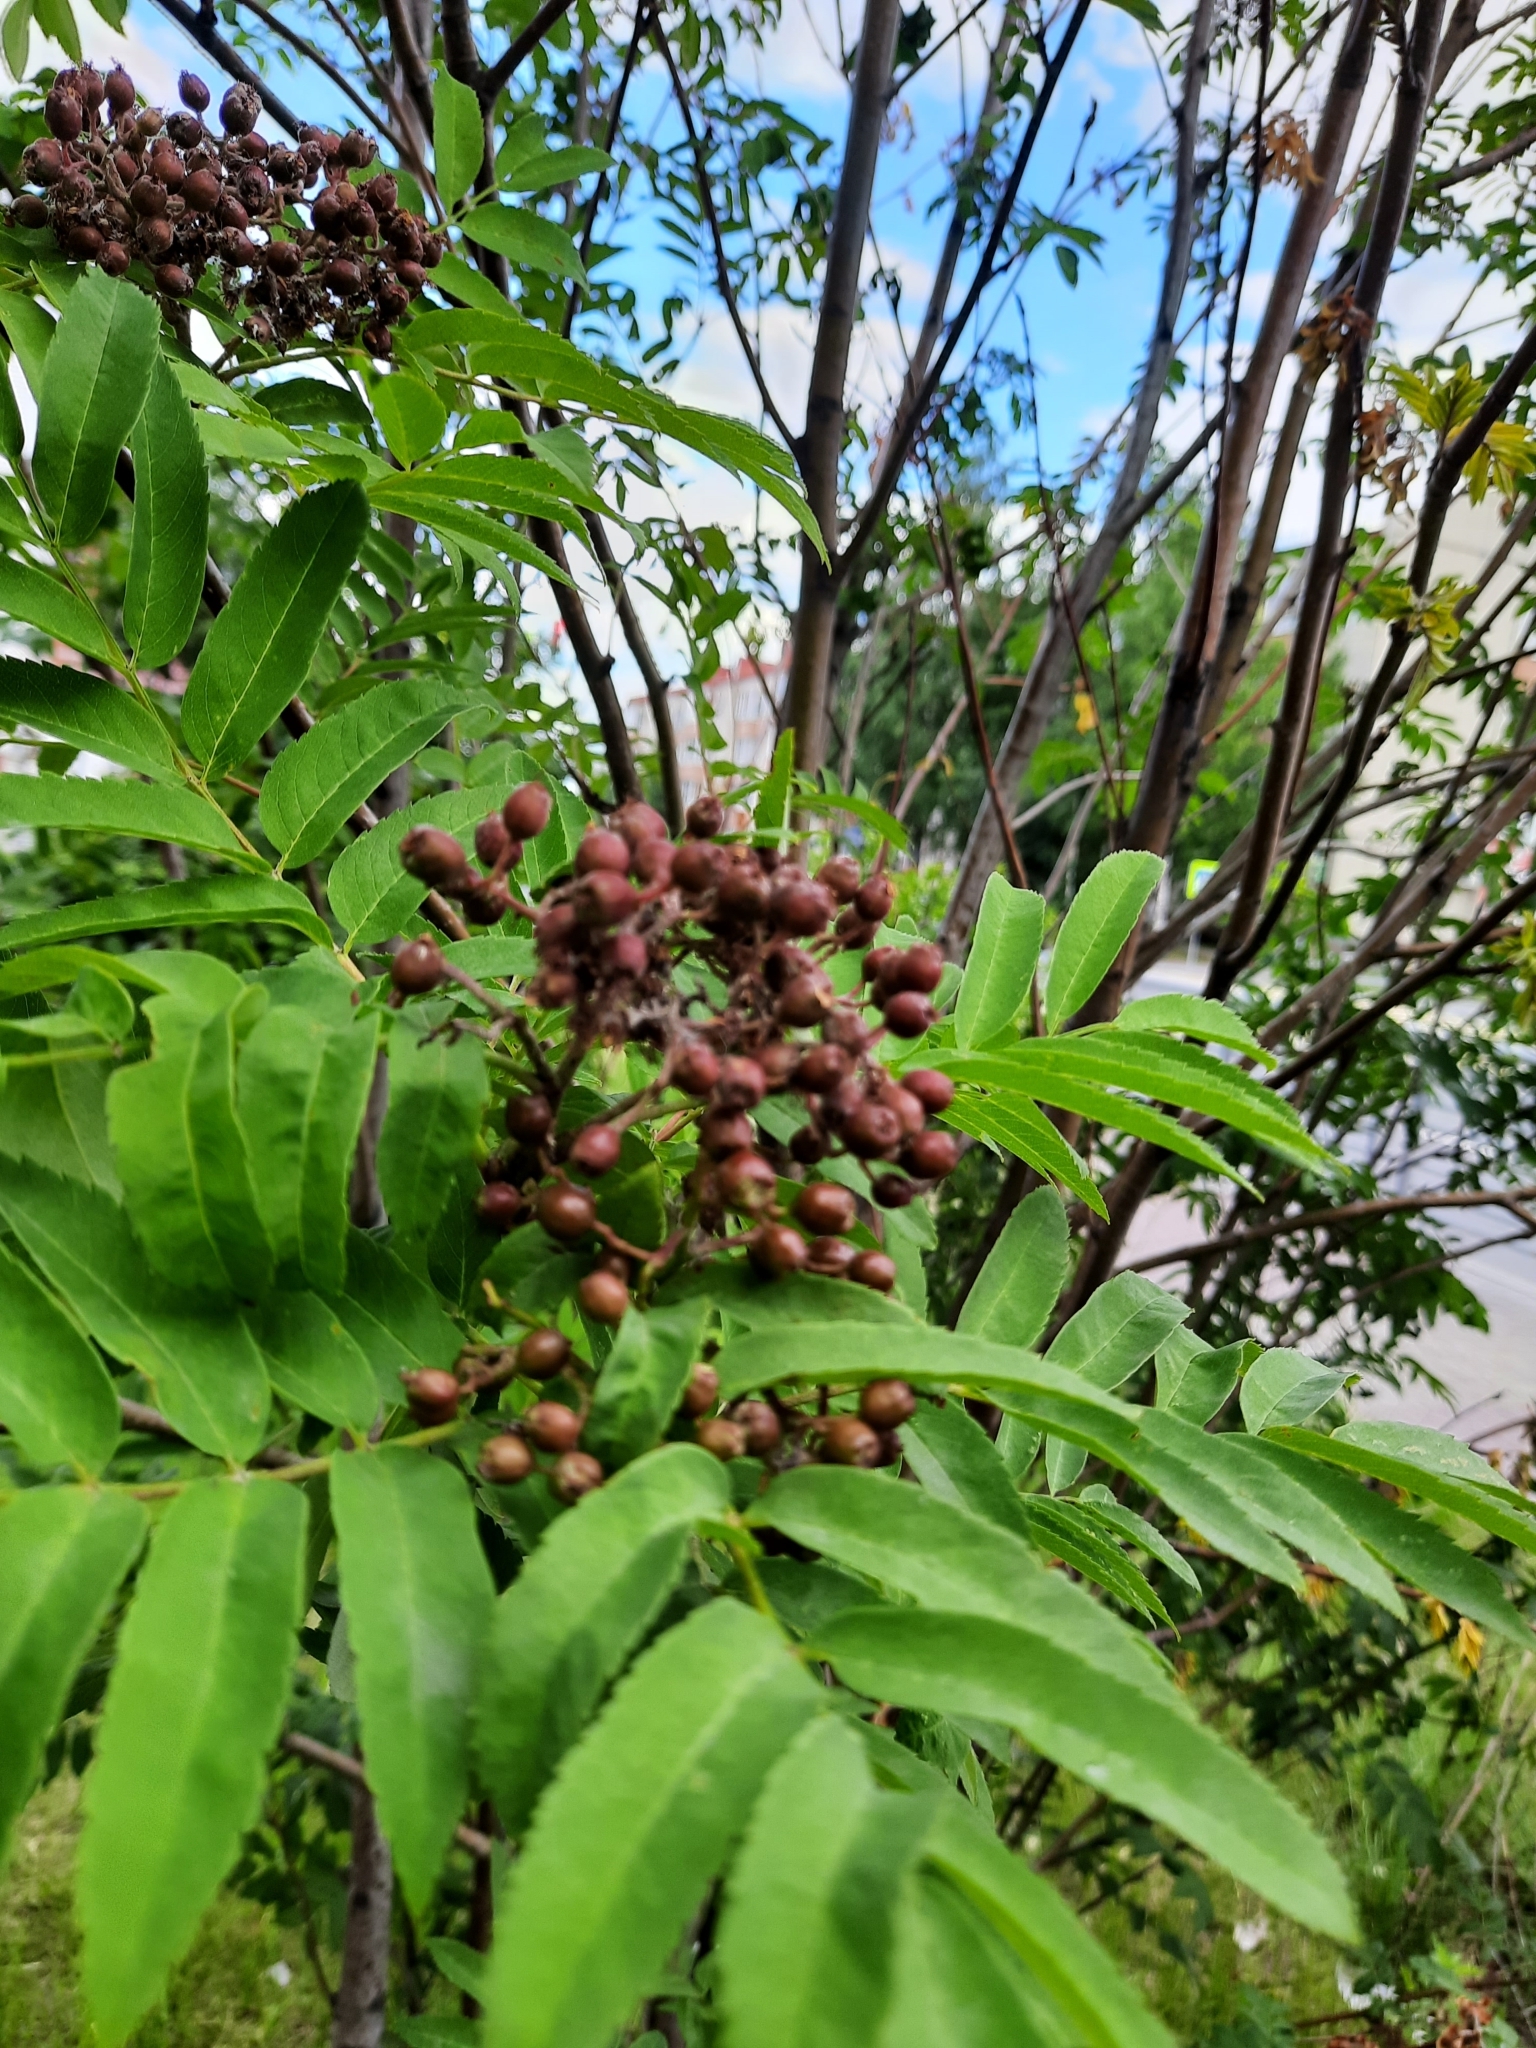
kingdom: Plantae
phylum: Tracheophyta
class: Magnoliopsida
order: Rosales
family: Rosaceae
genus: Sorbus
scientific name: Sorbus aucuparia
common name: Rowan
